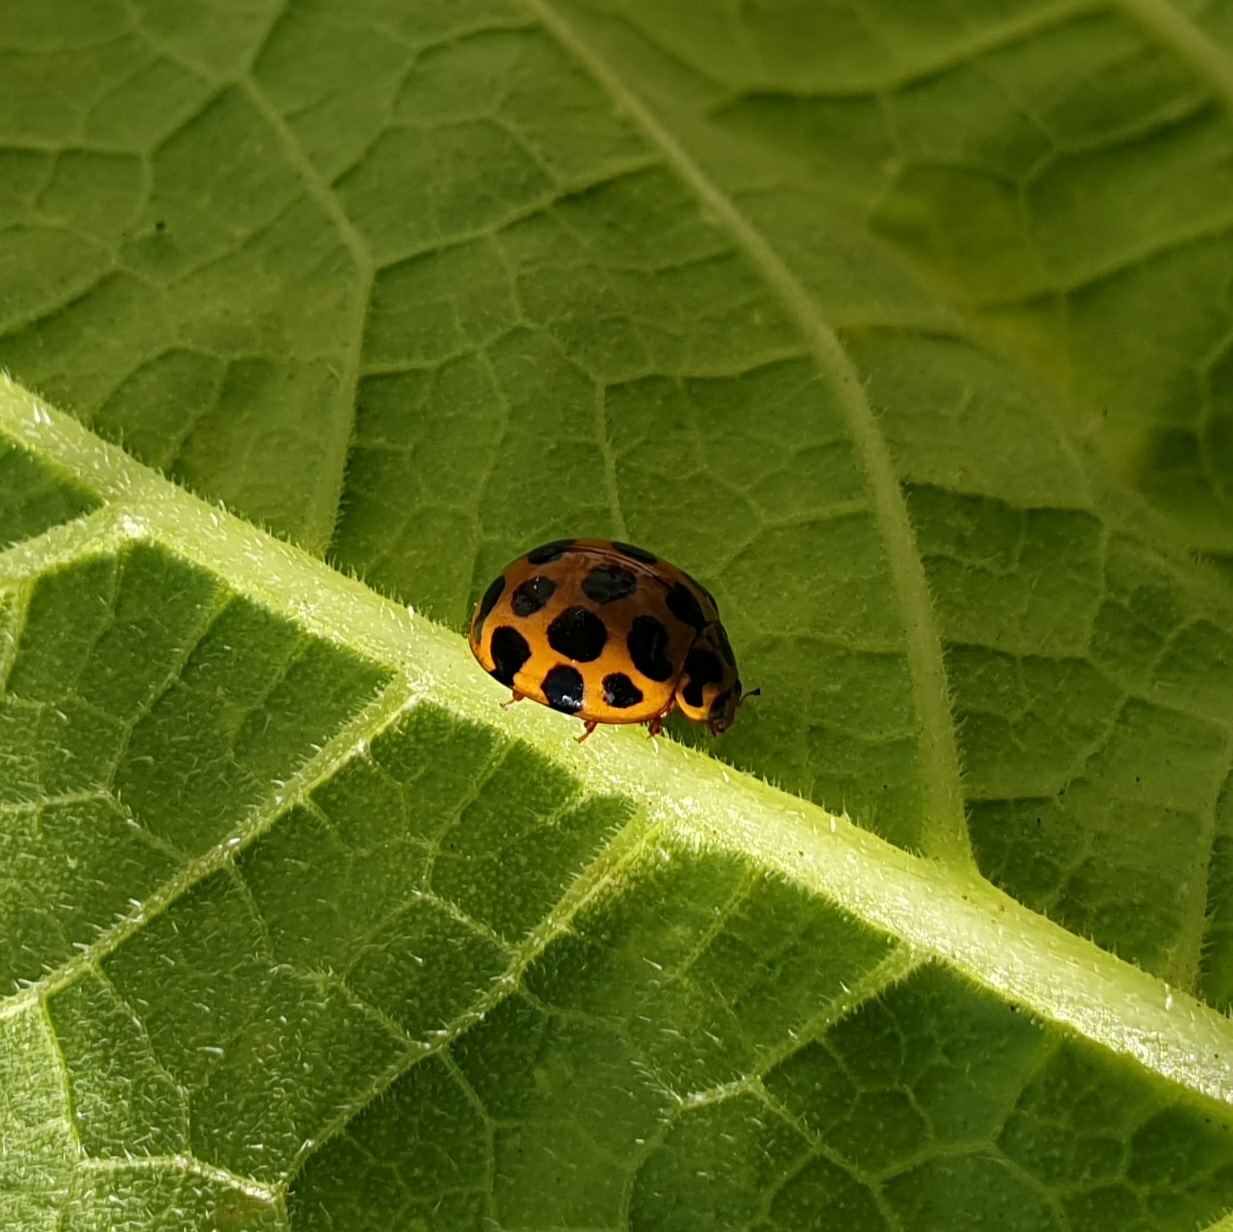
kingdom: Animalia
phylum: Arthropoda
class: Insecta
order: Coleoptera
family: Coccinellidae
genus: Harmonia
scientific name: Harmonia conformis
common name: Common spotted ladybird beetle
